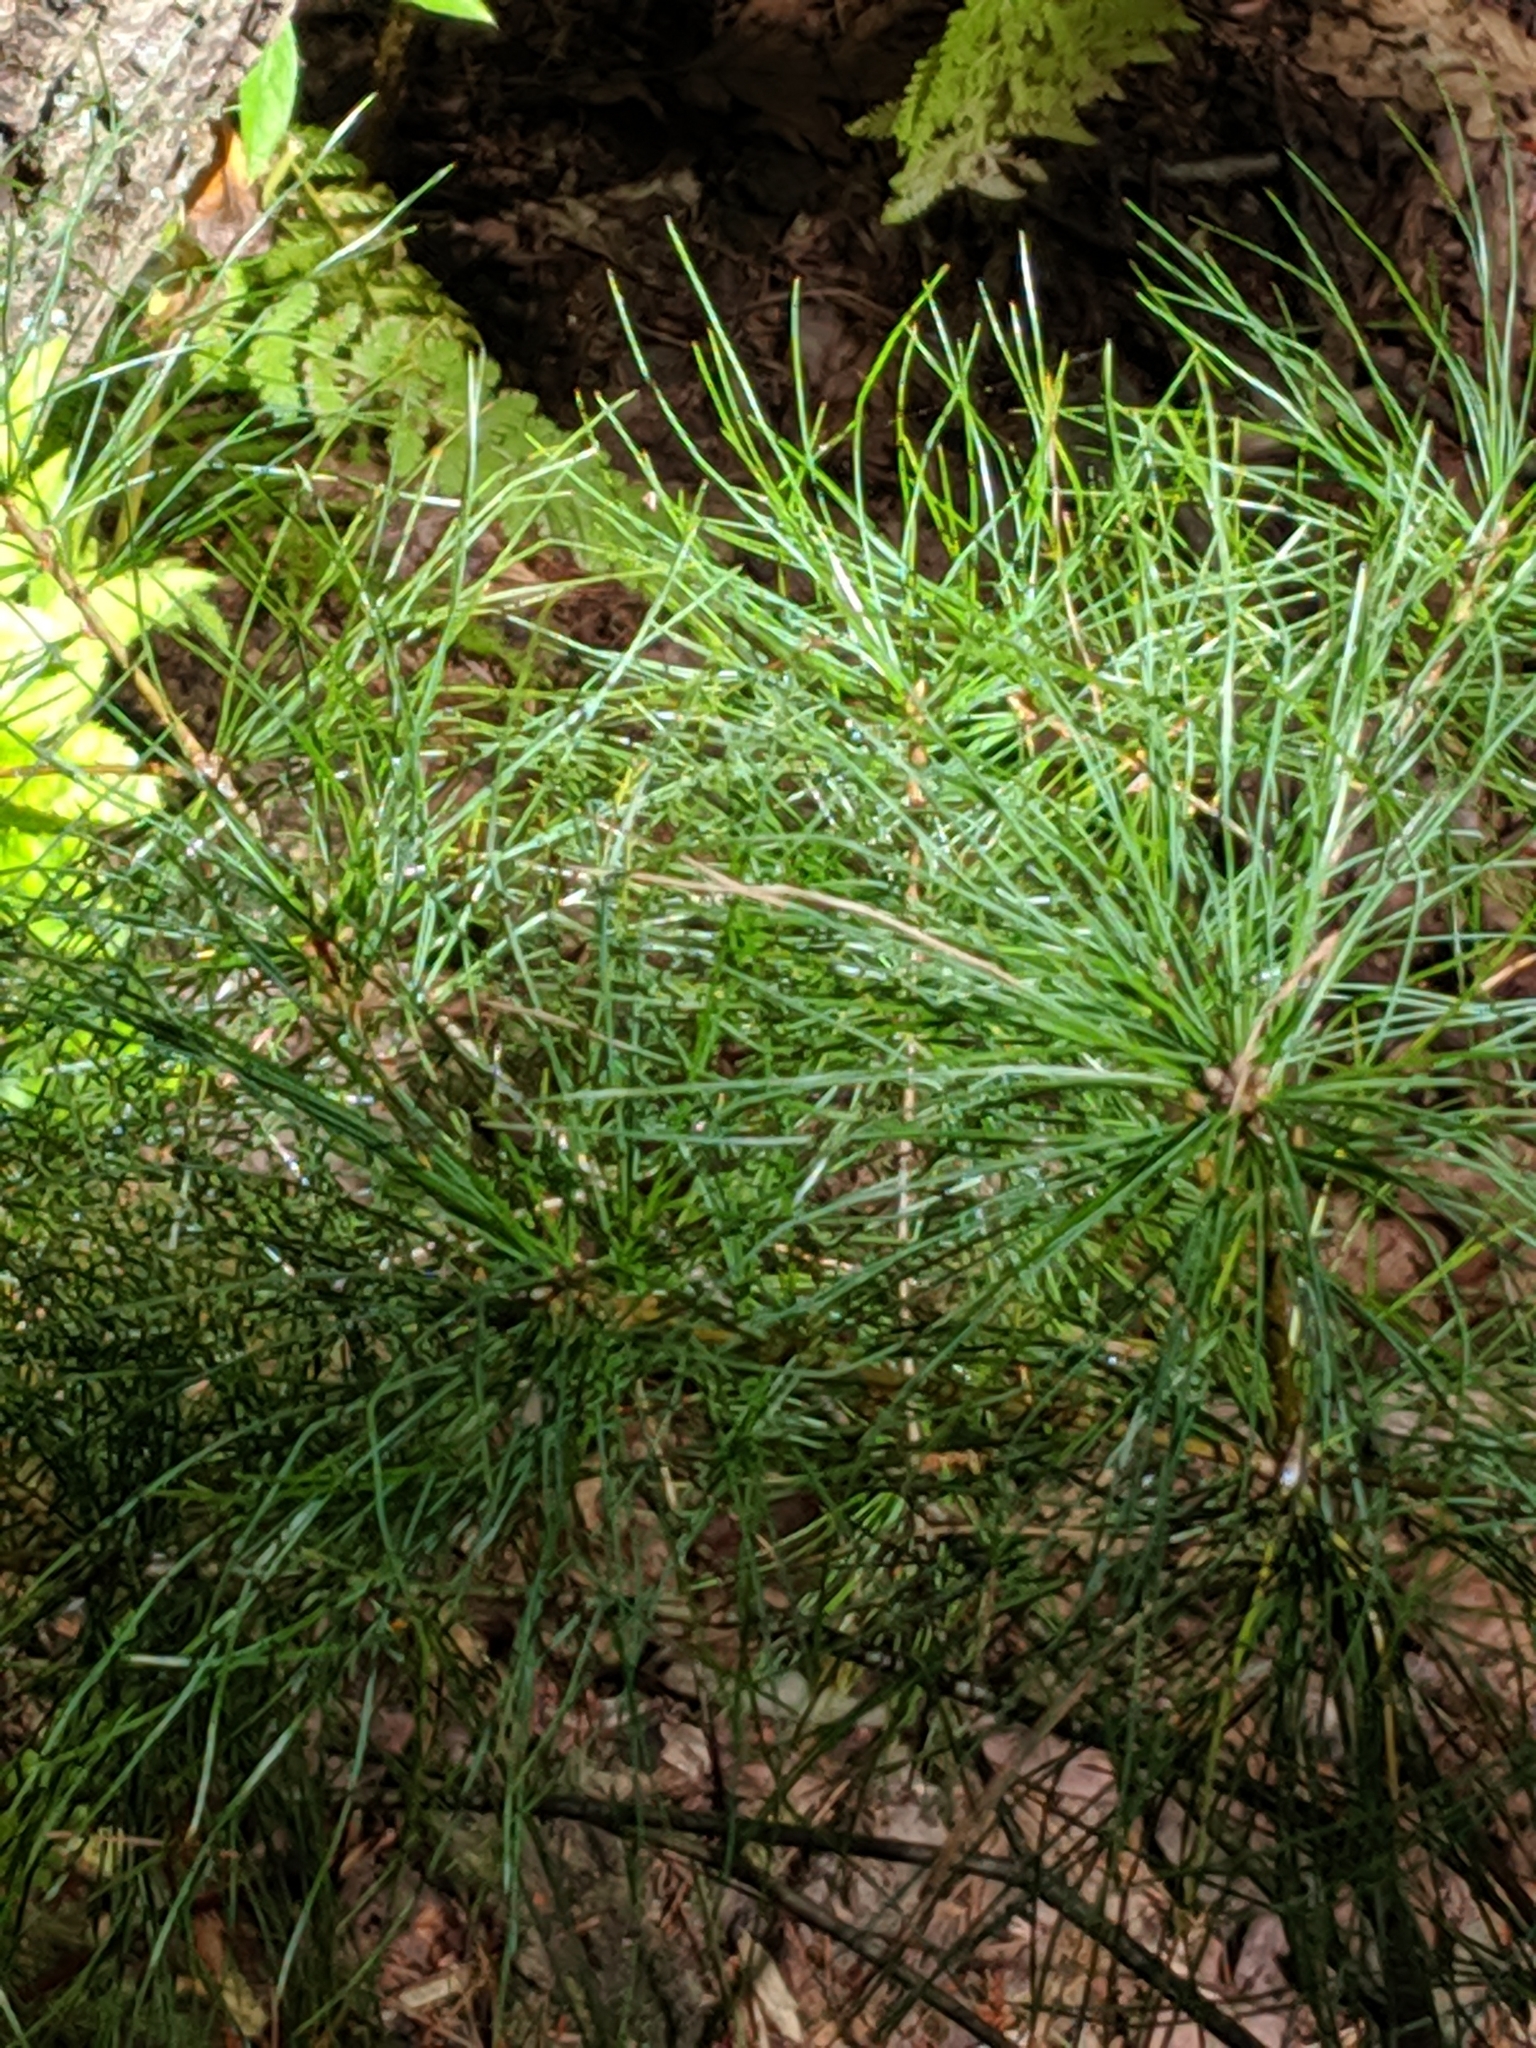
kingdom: Plantae
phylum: Tracheophyta
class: Pinopsida
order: Pinales
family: Pinaceae
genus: Pinus
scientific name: Pinus strobus
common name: Weymouth pine
